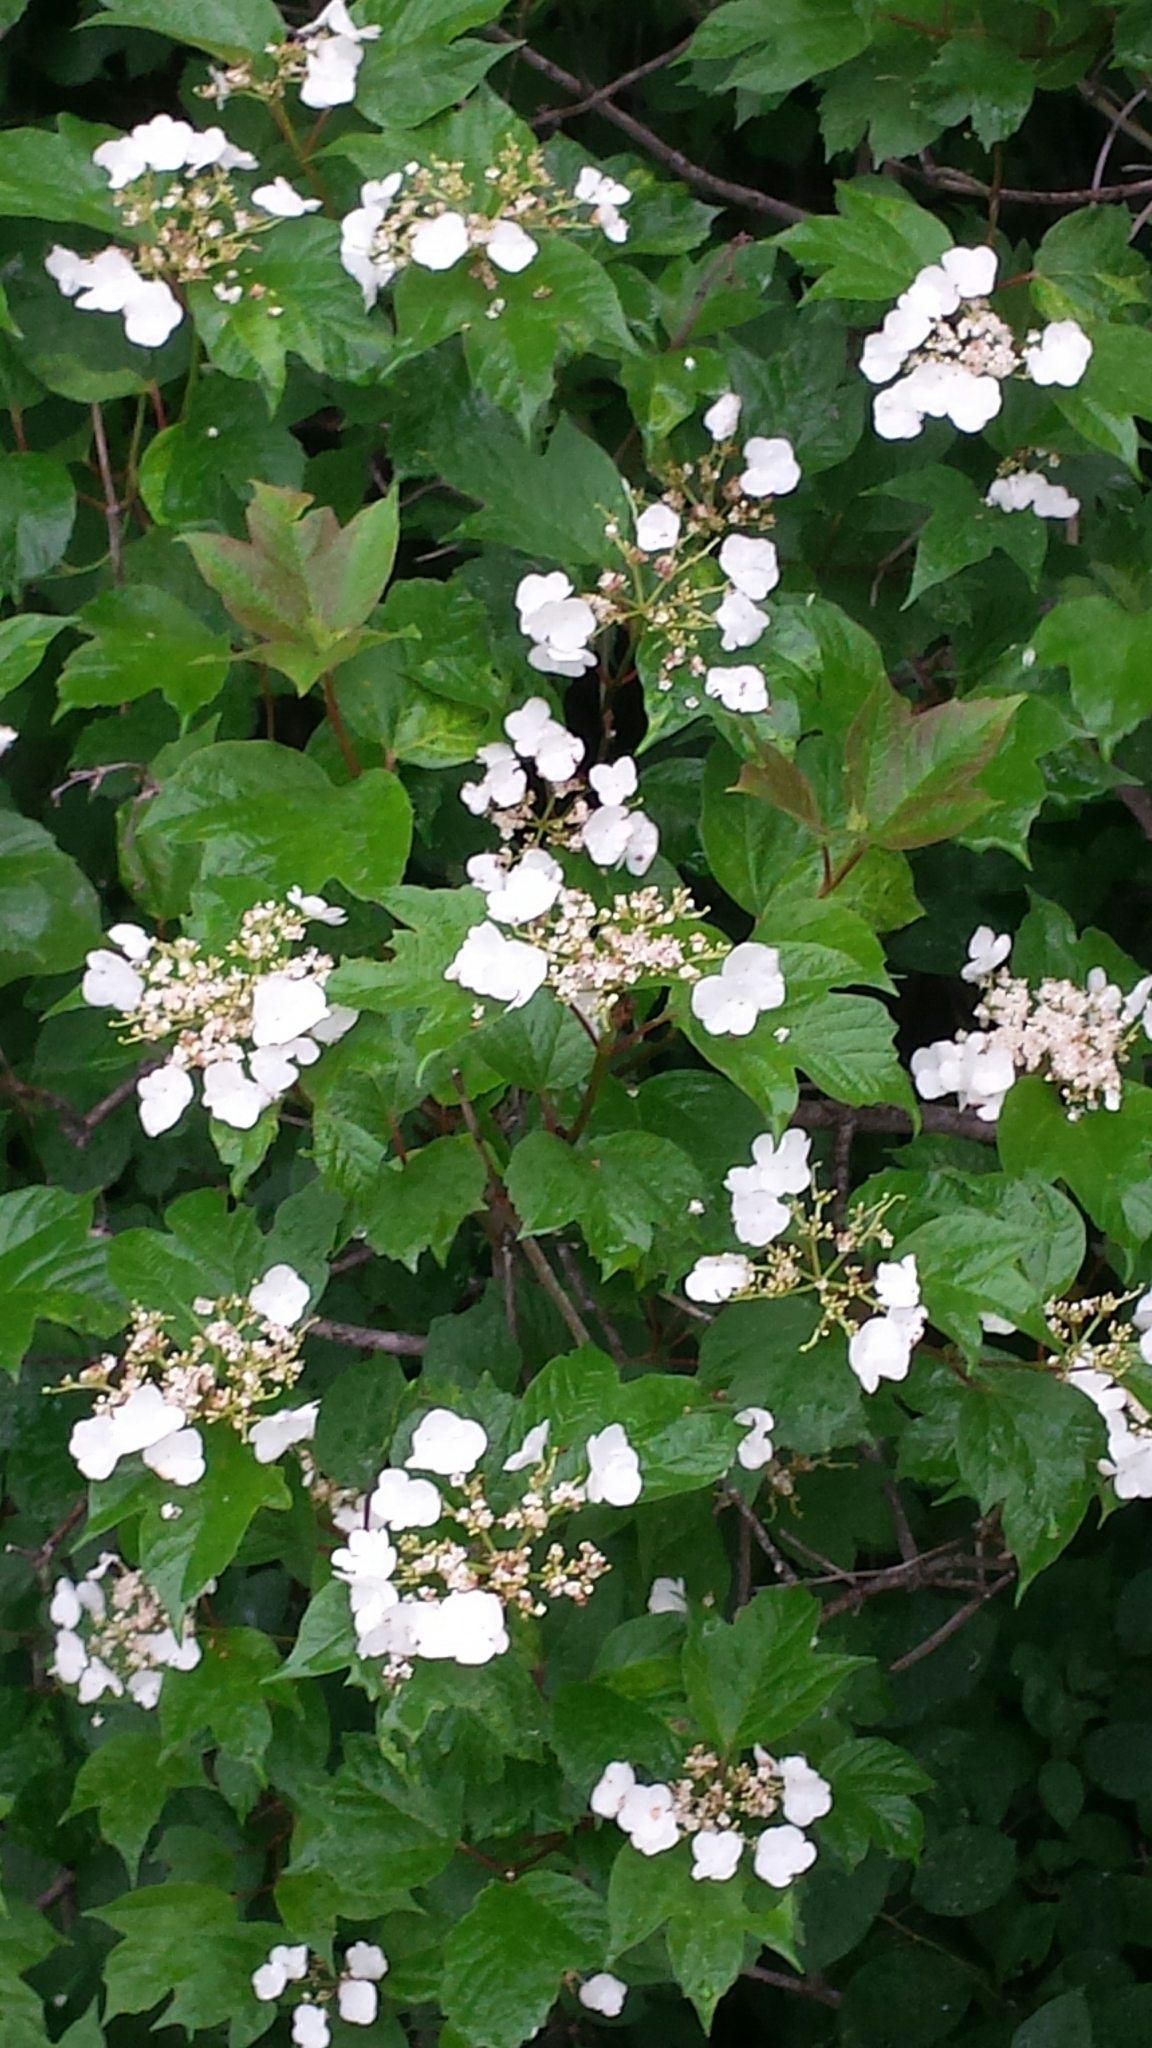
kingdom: Plantae
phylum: Tracheophyta
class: Magnoliopsida
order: Dipsacales
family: Viburnaceae
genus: Viburnum
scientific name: Viburnum opulus
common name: Guelder-rose
